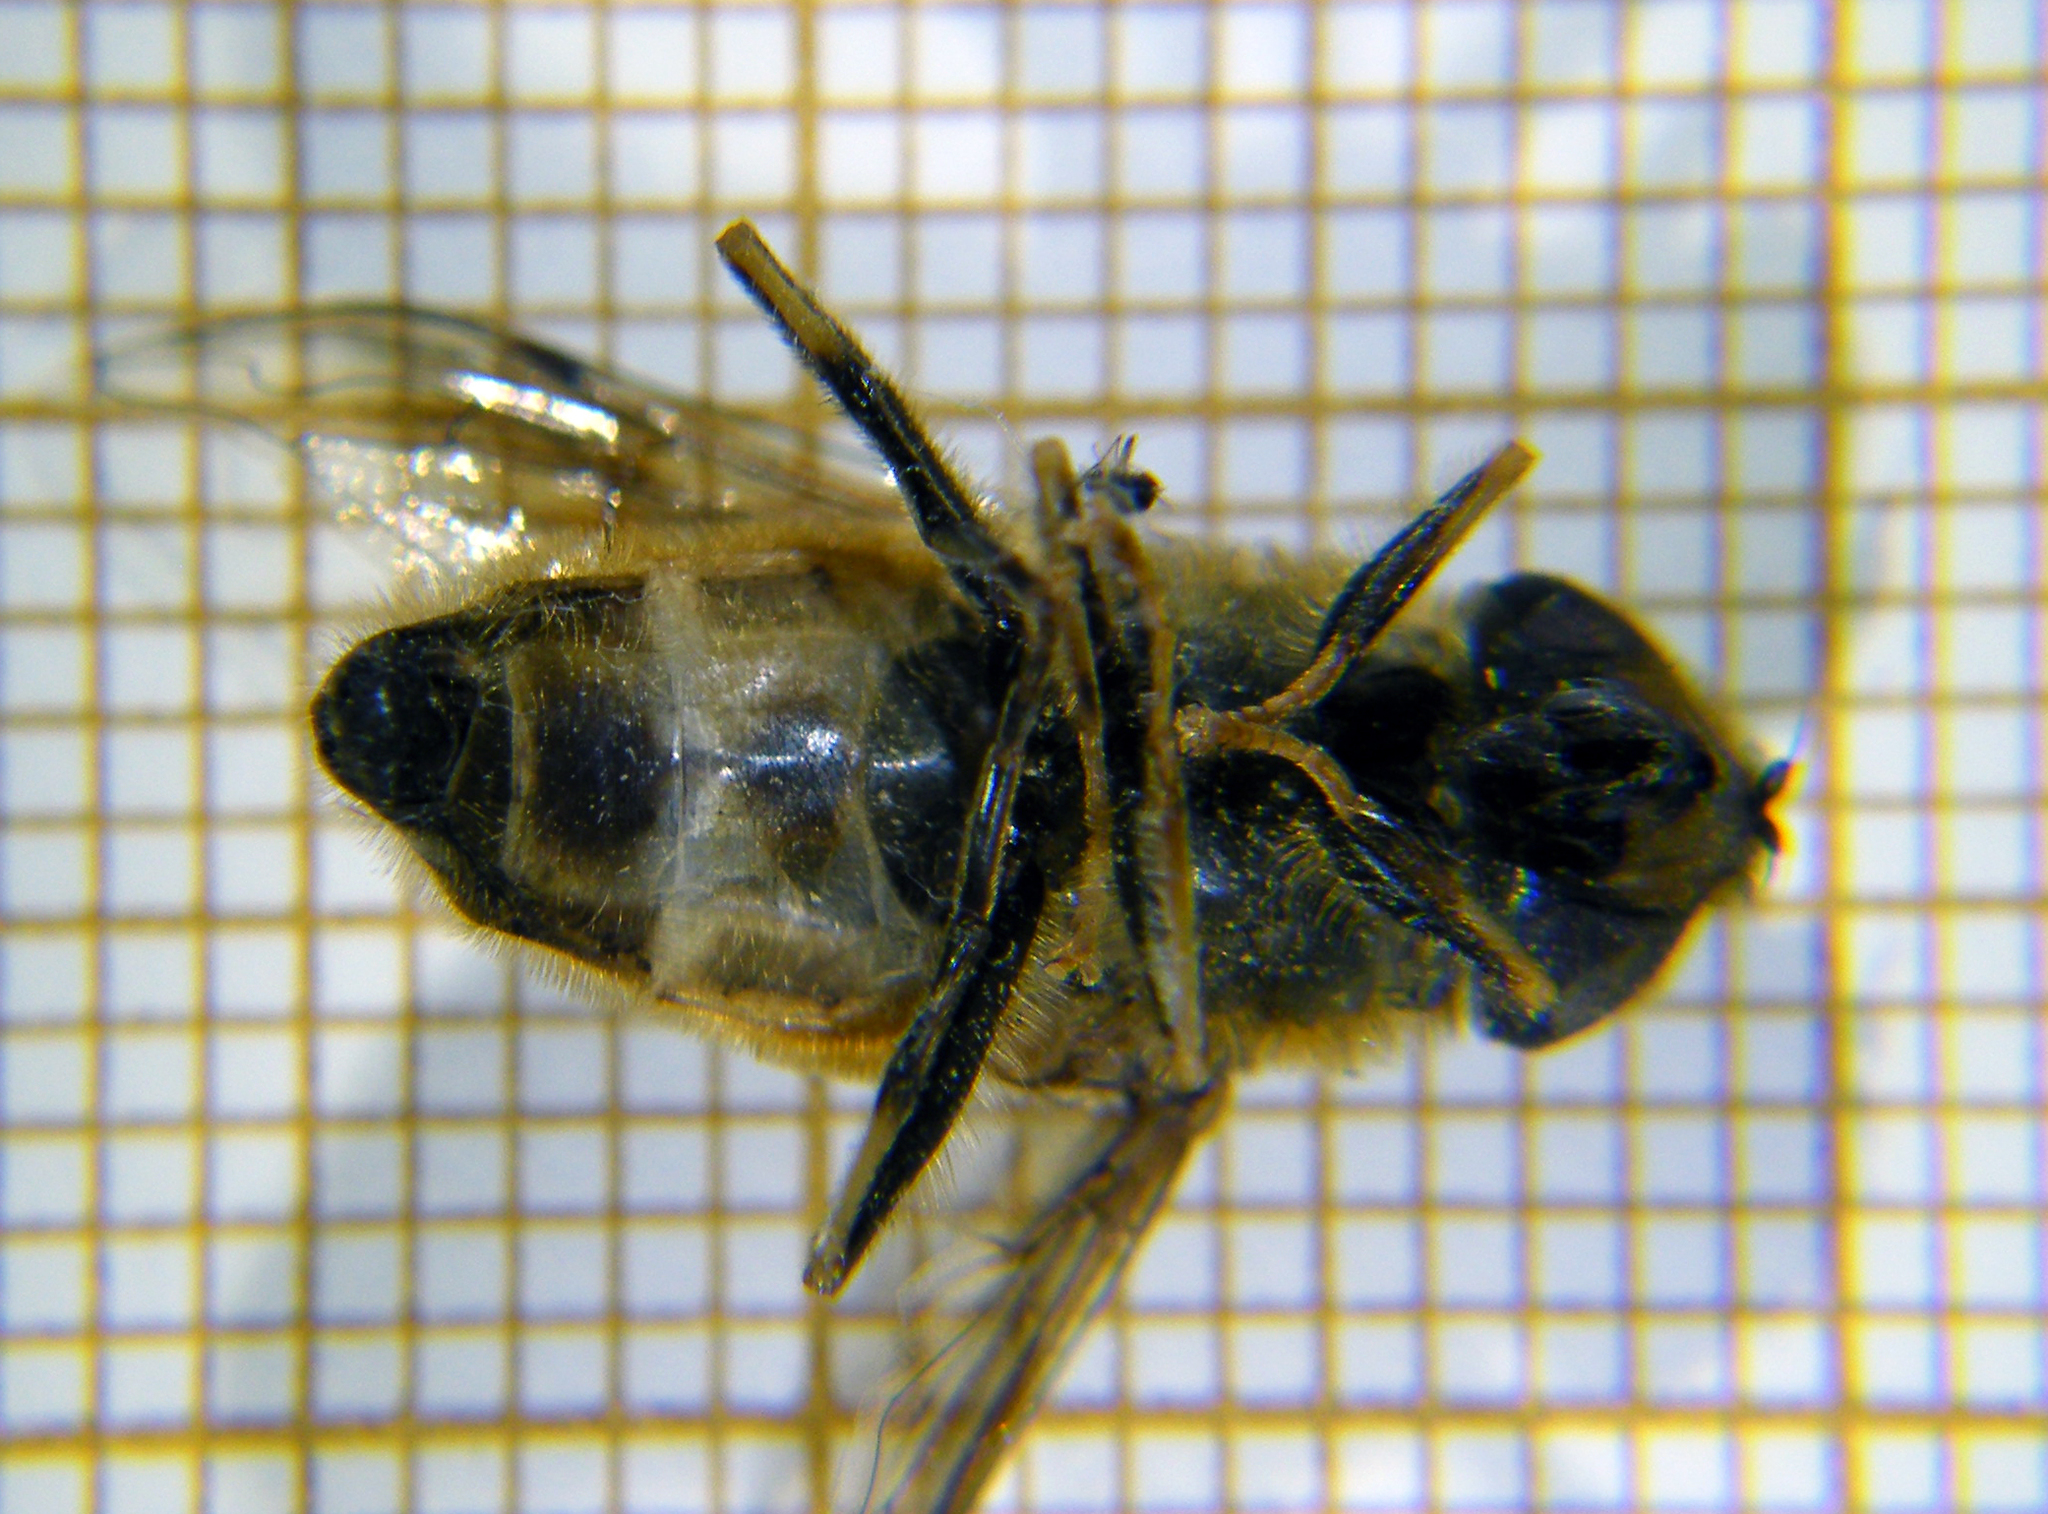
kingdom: Animalia
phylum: Arthropoda
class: Insecta
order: Diptera
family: Syrphidae
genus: Eristalis
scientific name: Eristalis pertinax
